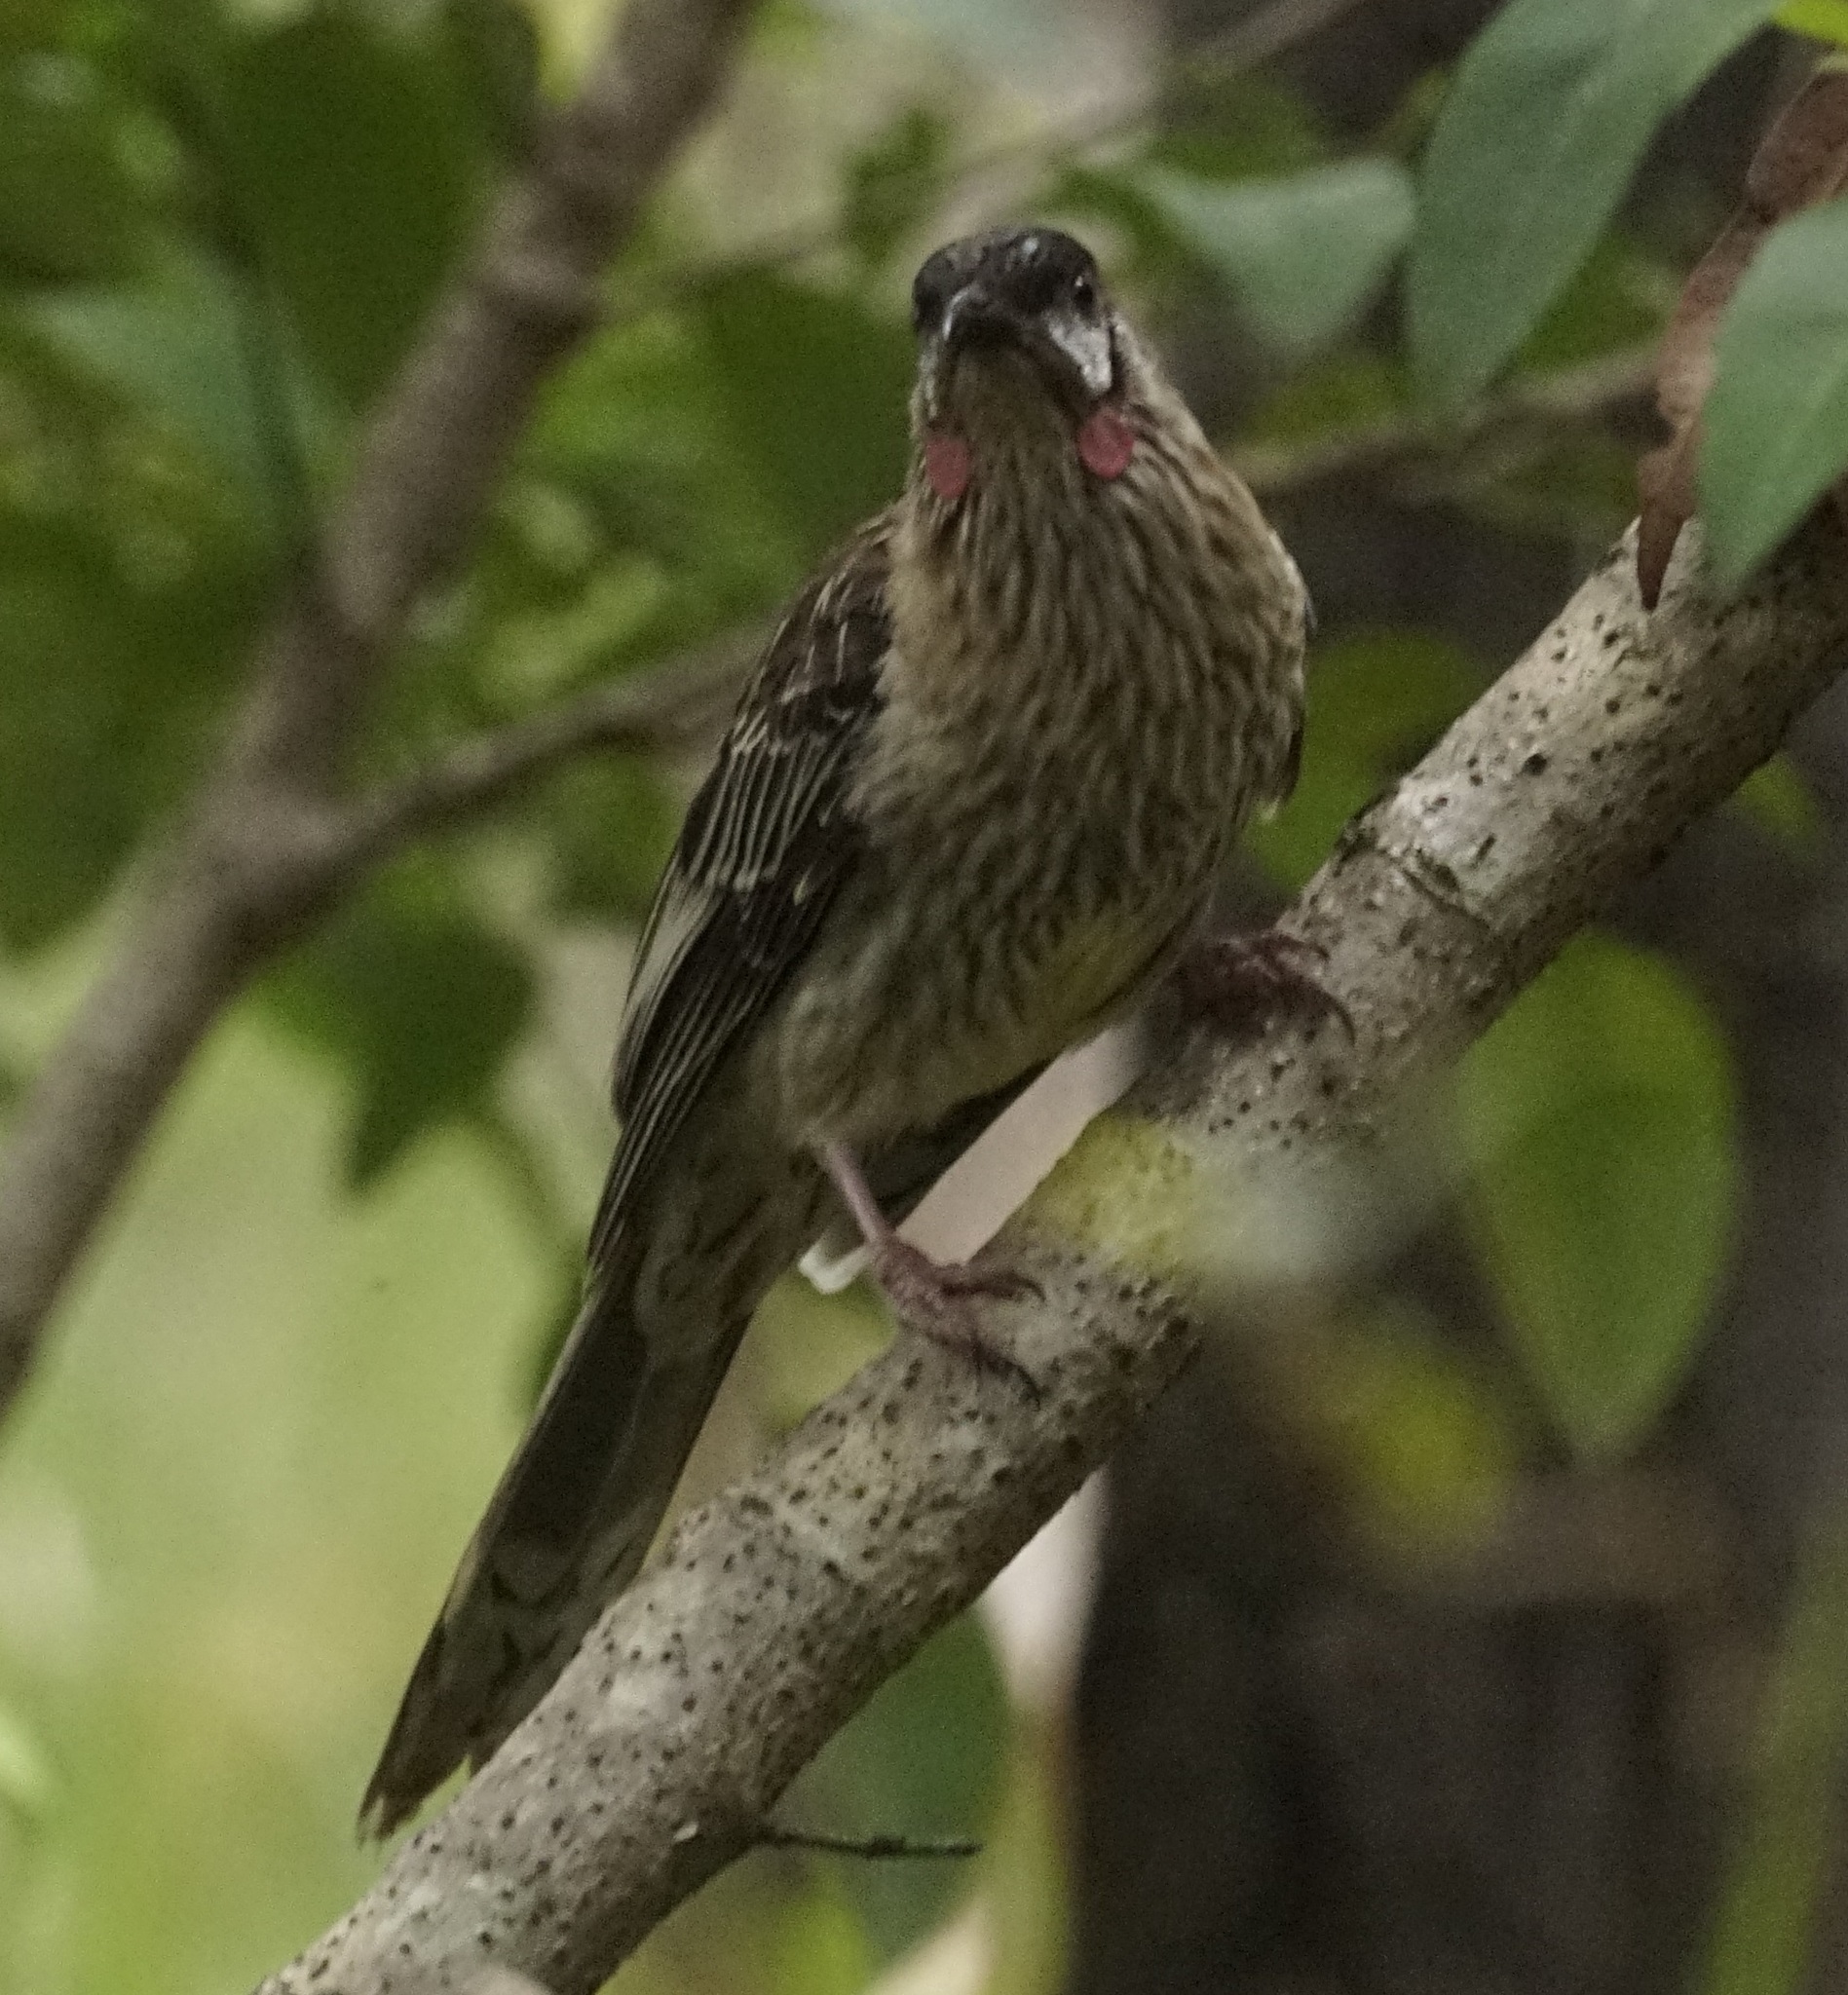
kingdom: Animalia
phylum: Chordata
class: Aves
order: Passeriformes
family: Meliphagidae
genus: Anthochaera
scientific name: Anthochaera carunculata
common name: Red wattlebird
